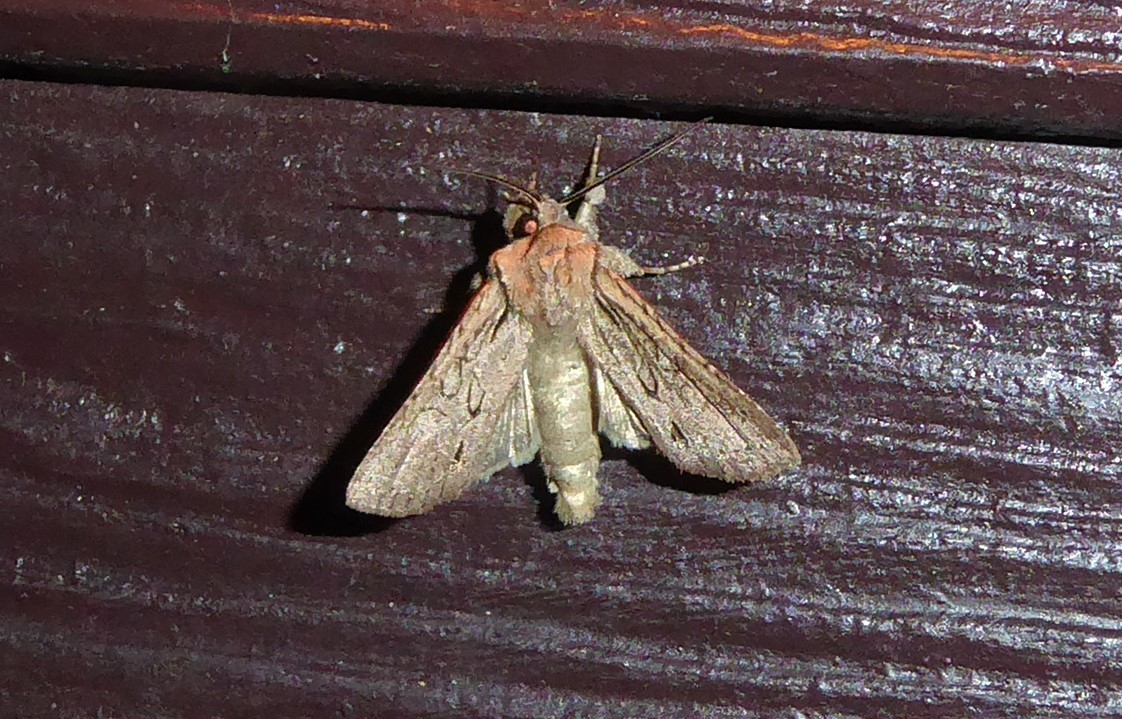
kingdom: Animalia
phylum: Arthropoda
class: Insecta
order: Lepidoptera
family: Noctuidae
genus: Ichneutica
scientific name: Ichneutica
